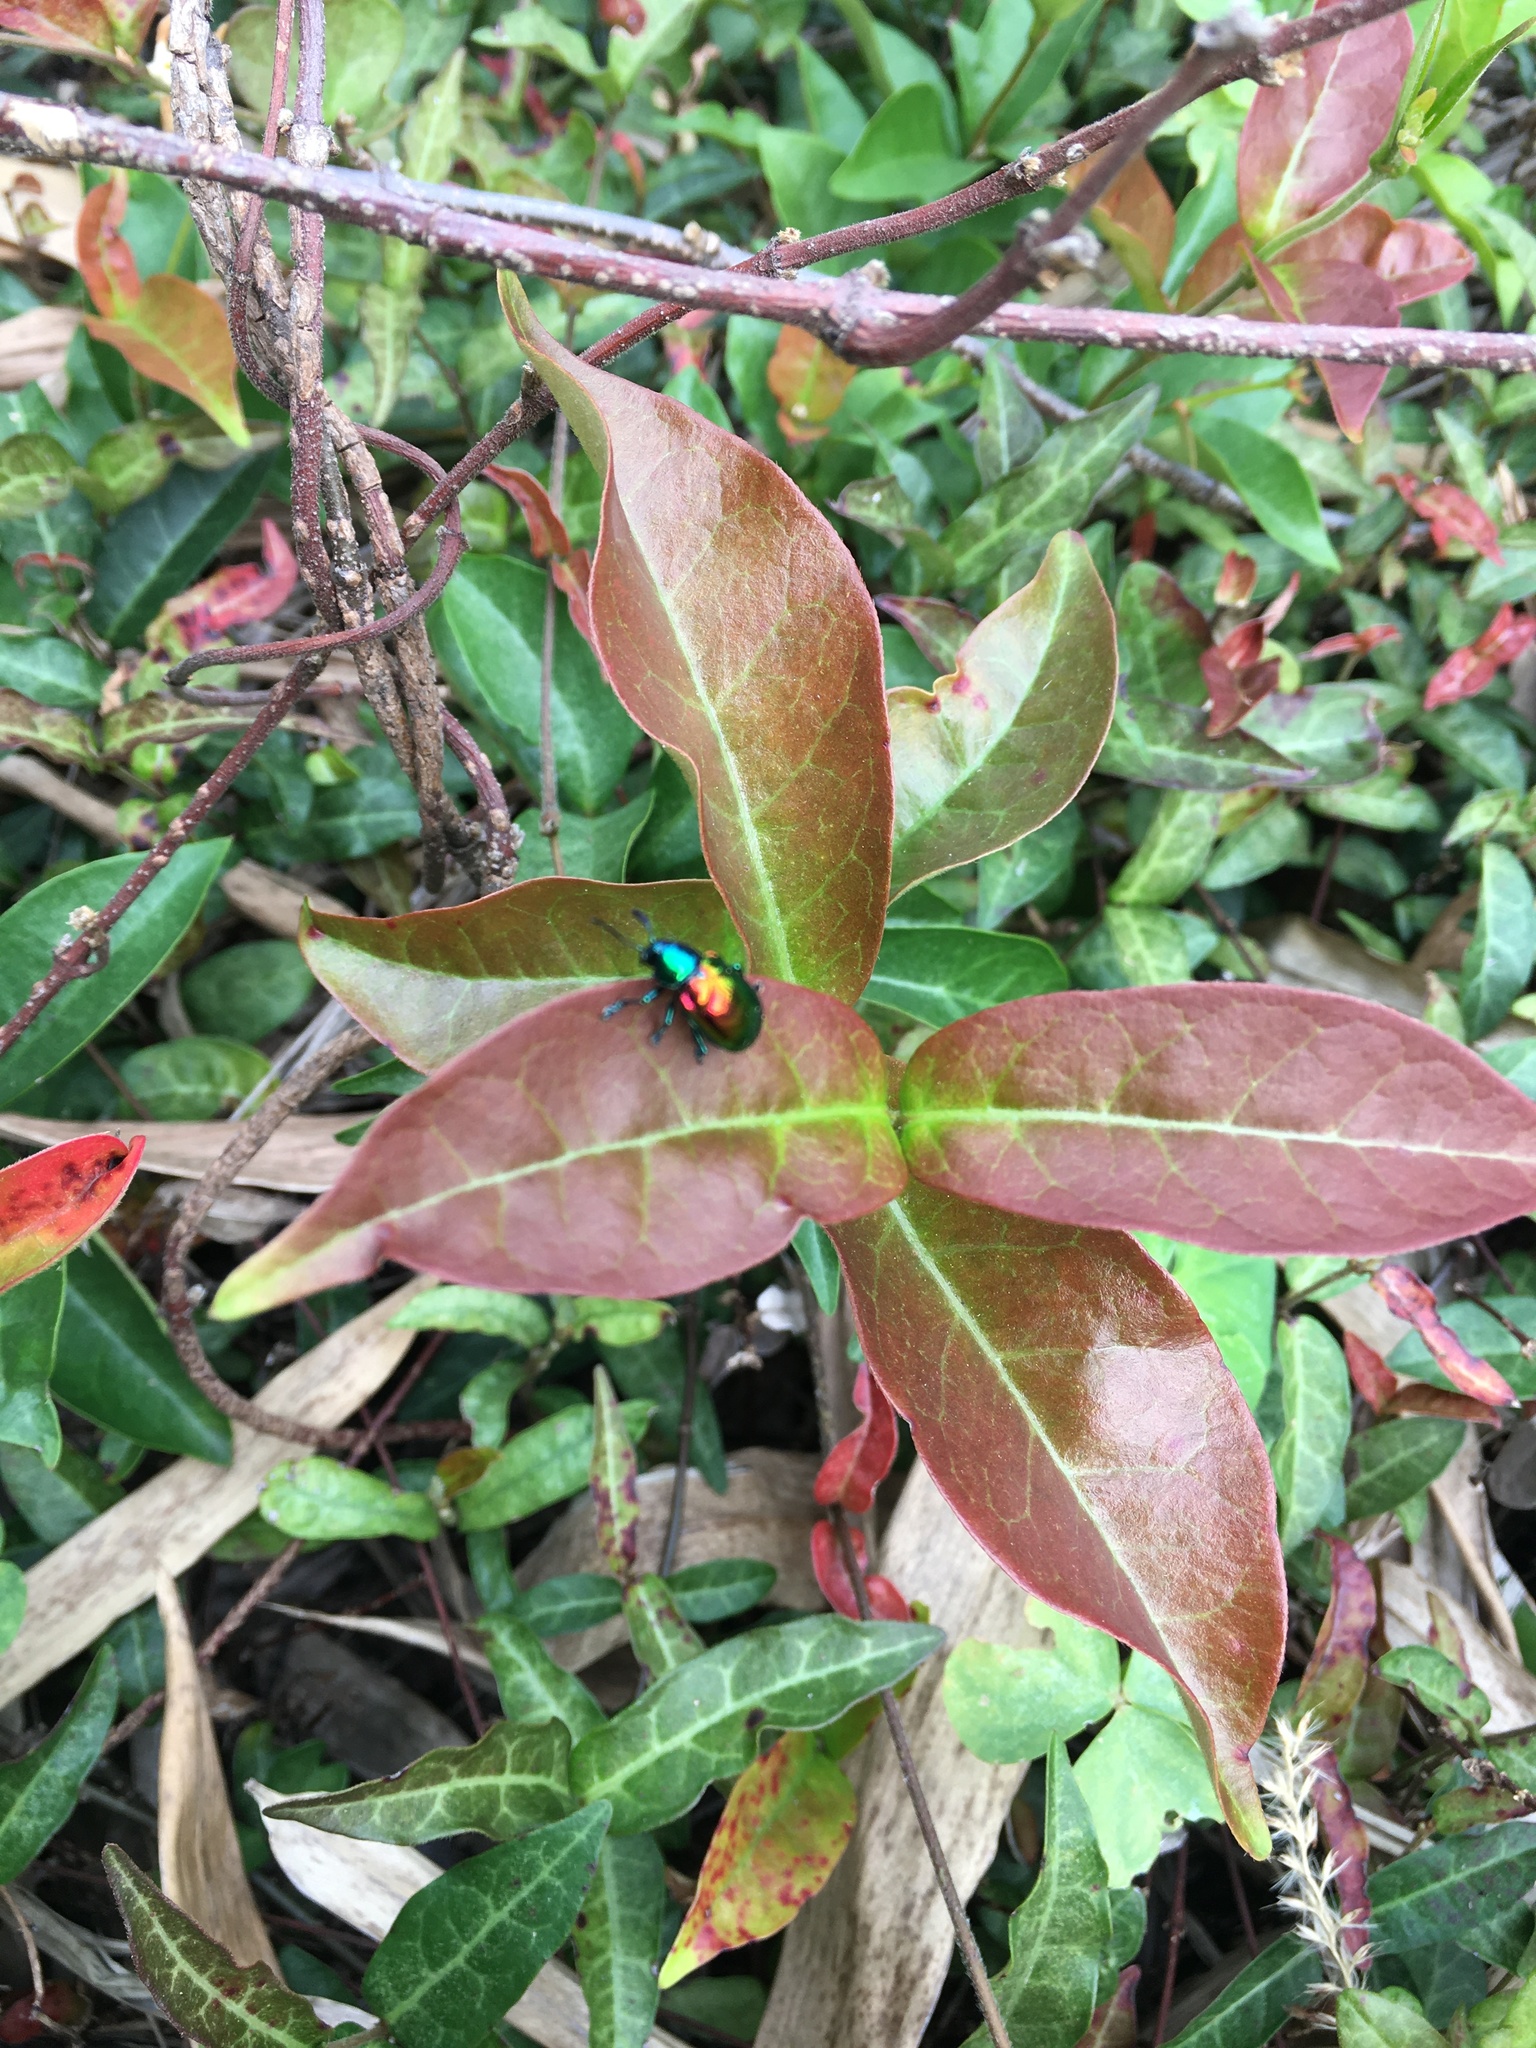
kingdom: Animalia
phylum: Arthropoda
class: Insecta
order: Coleoptera
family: Chrysomelidae
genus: Platycorynus
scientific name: Platycorynus sauteri
